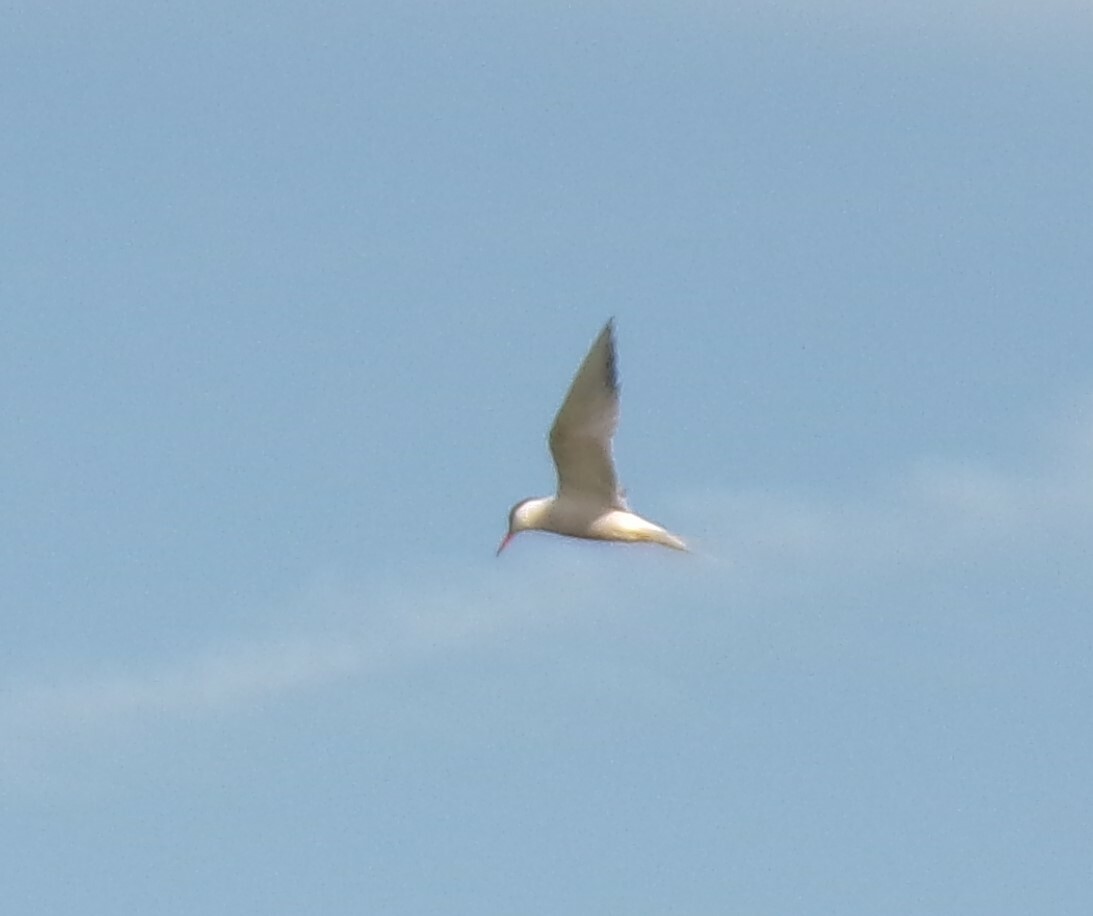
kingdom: Animalia
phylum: Chordata
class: Aves
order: Charadriiformes
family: Laridae
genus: Sterna
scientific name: Sterna hirundo
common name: Common tern
